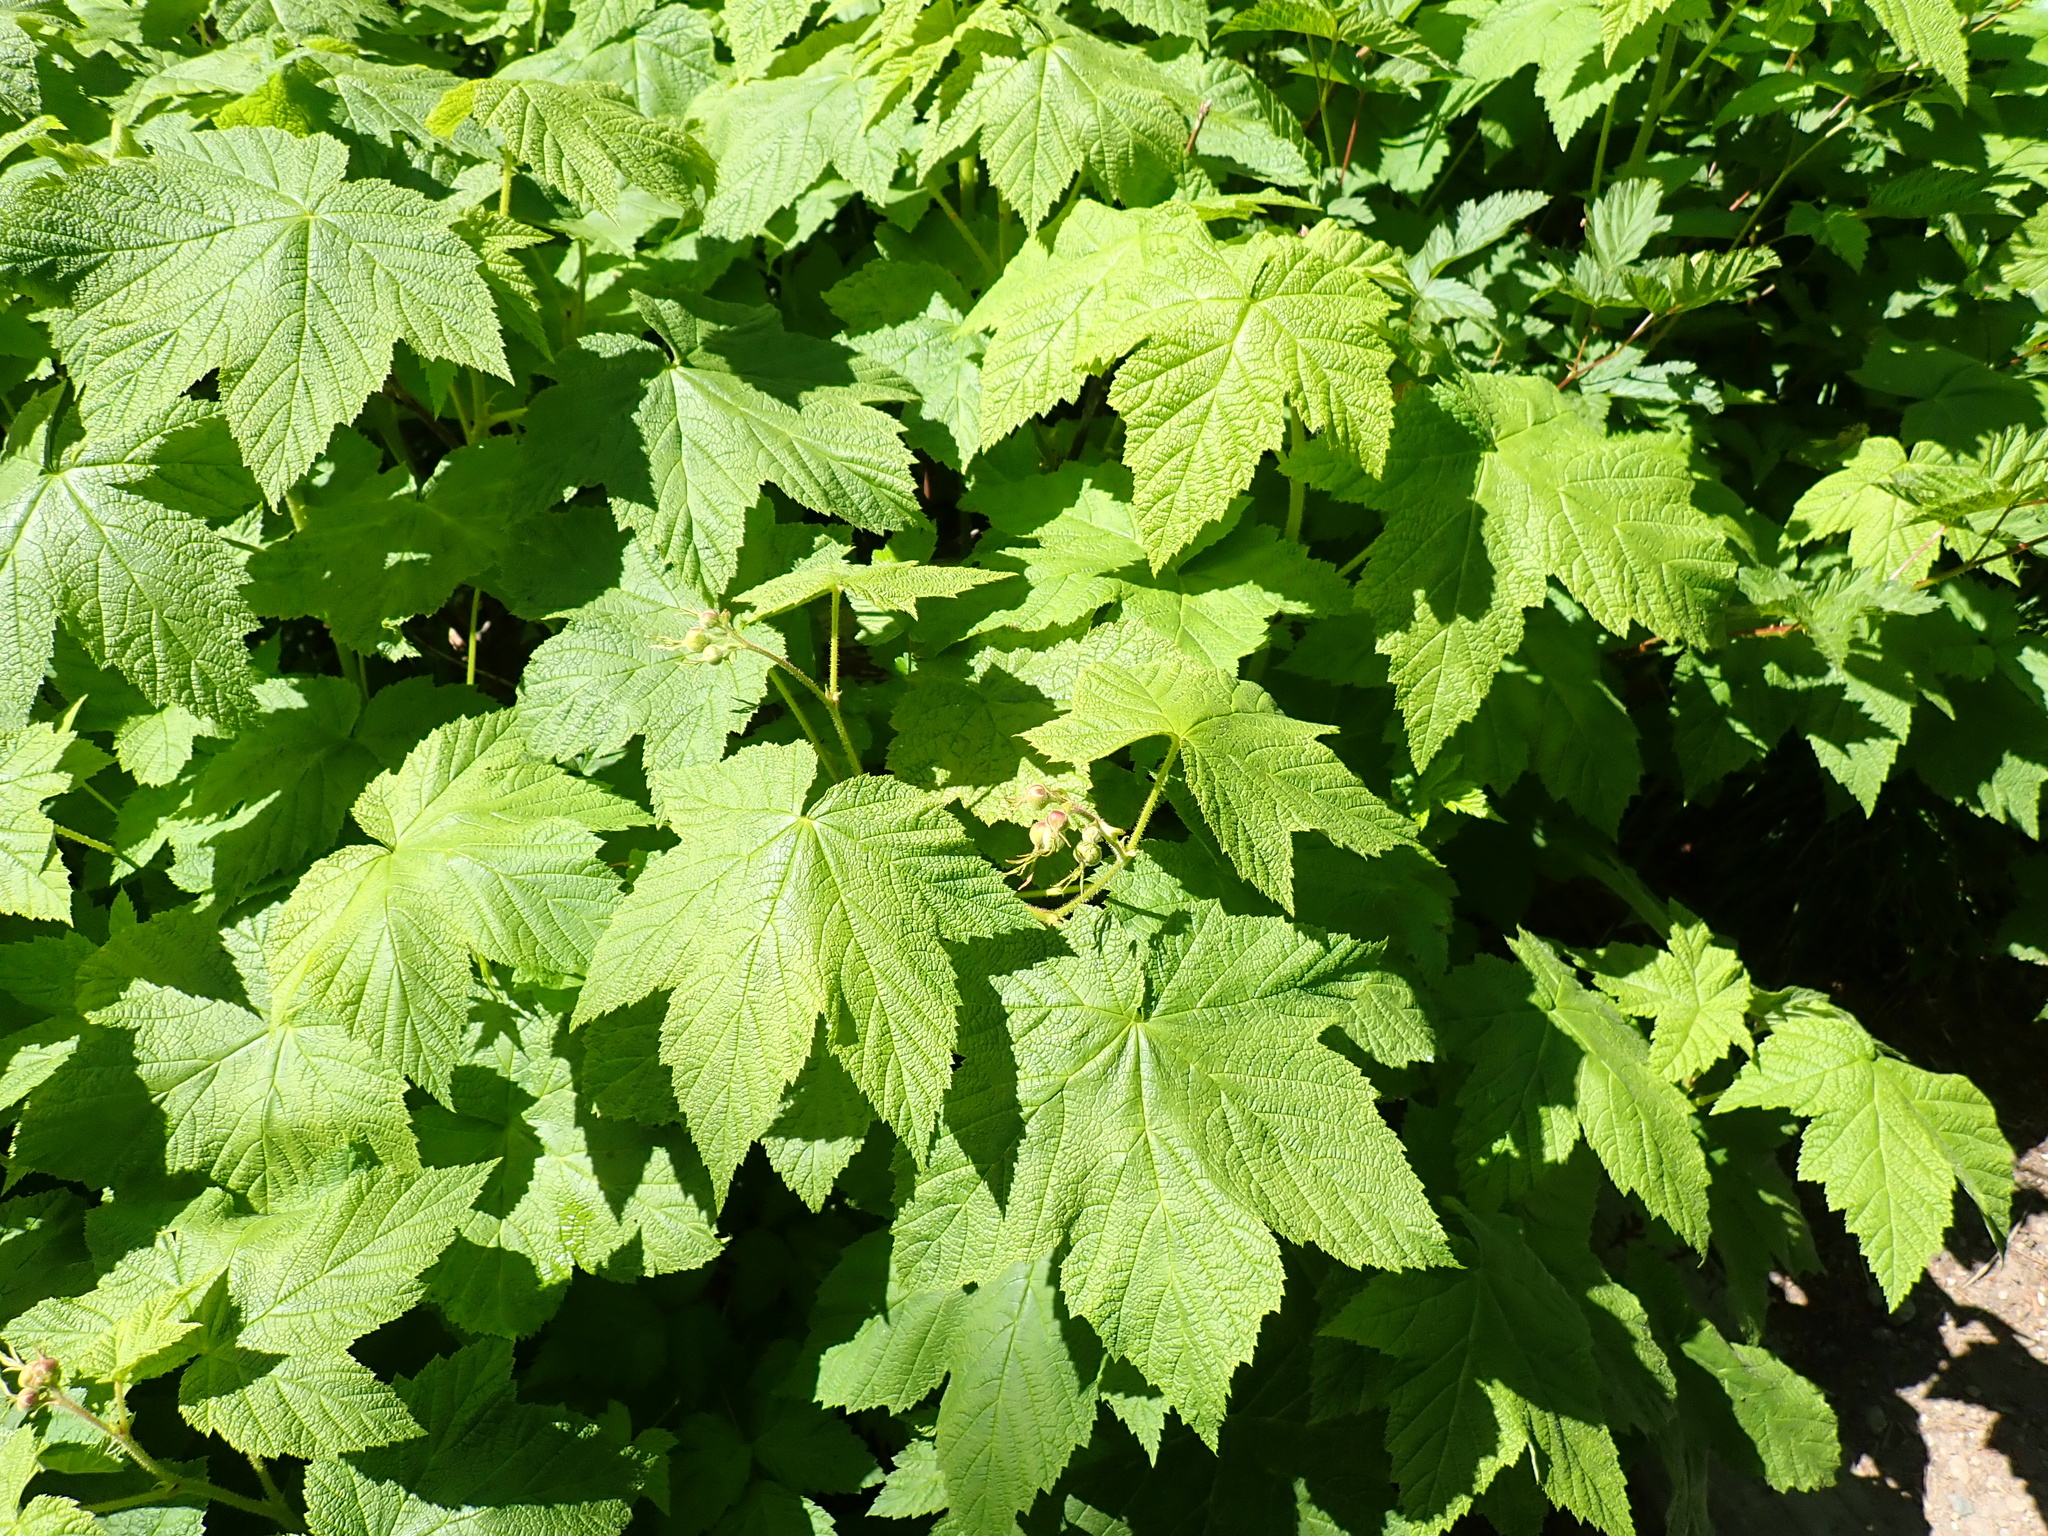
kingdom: Plantae
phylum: Tracheophyta
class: Magnoliopsida
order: Rosales
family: Rosaceae
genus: Rubus
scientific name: Rubus parviflorus
